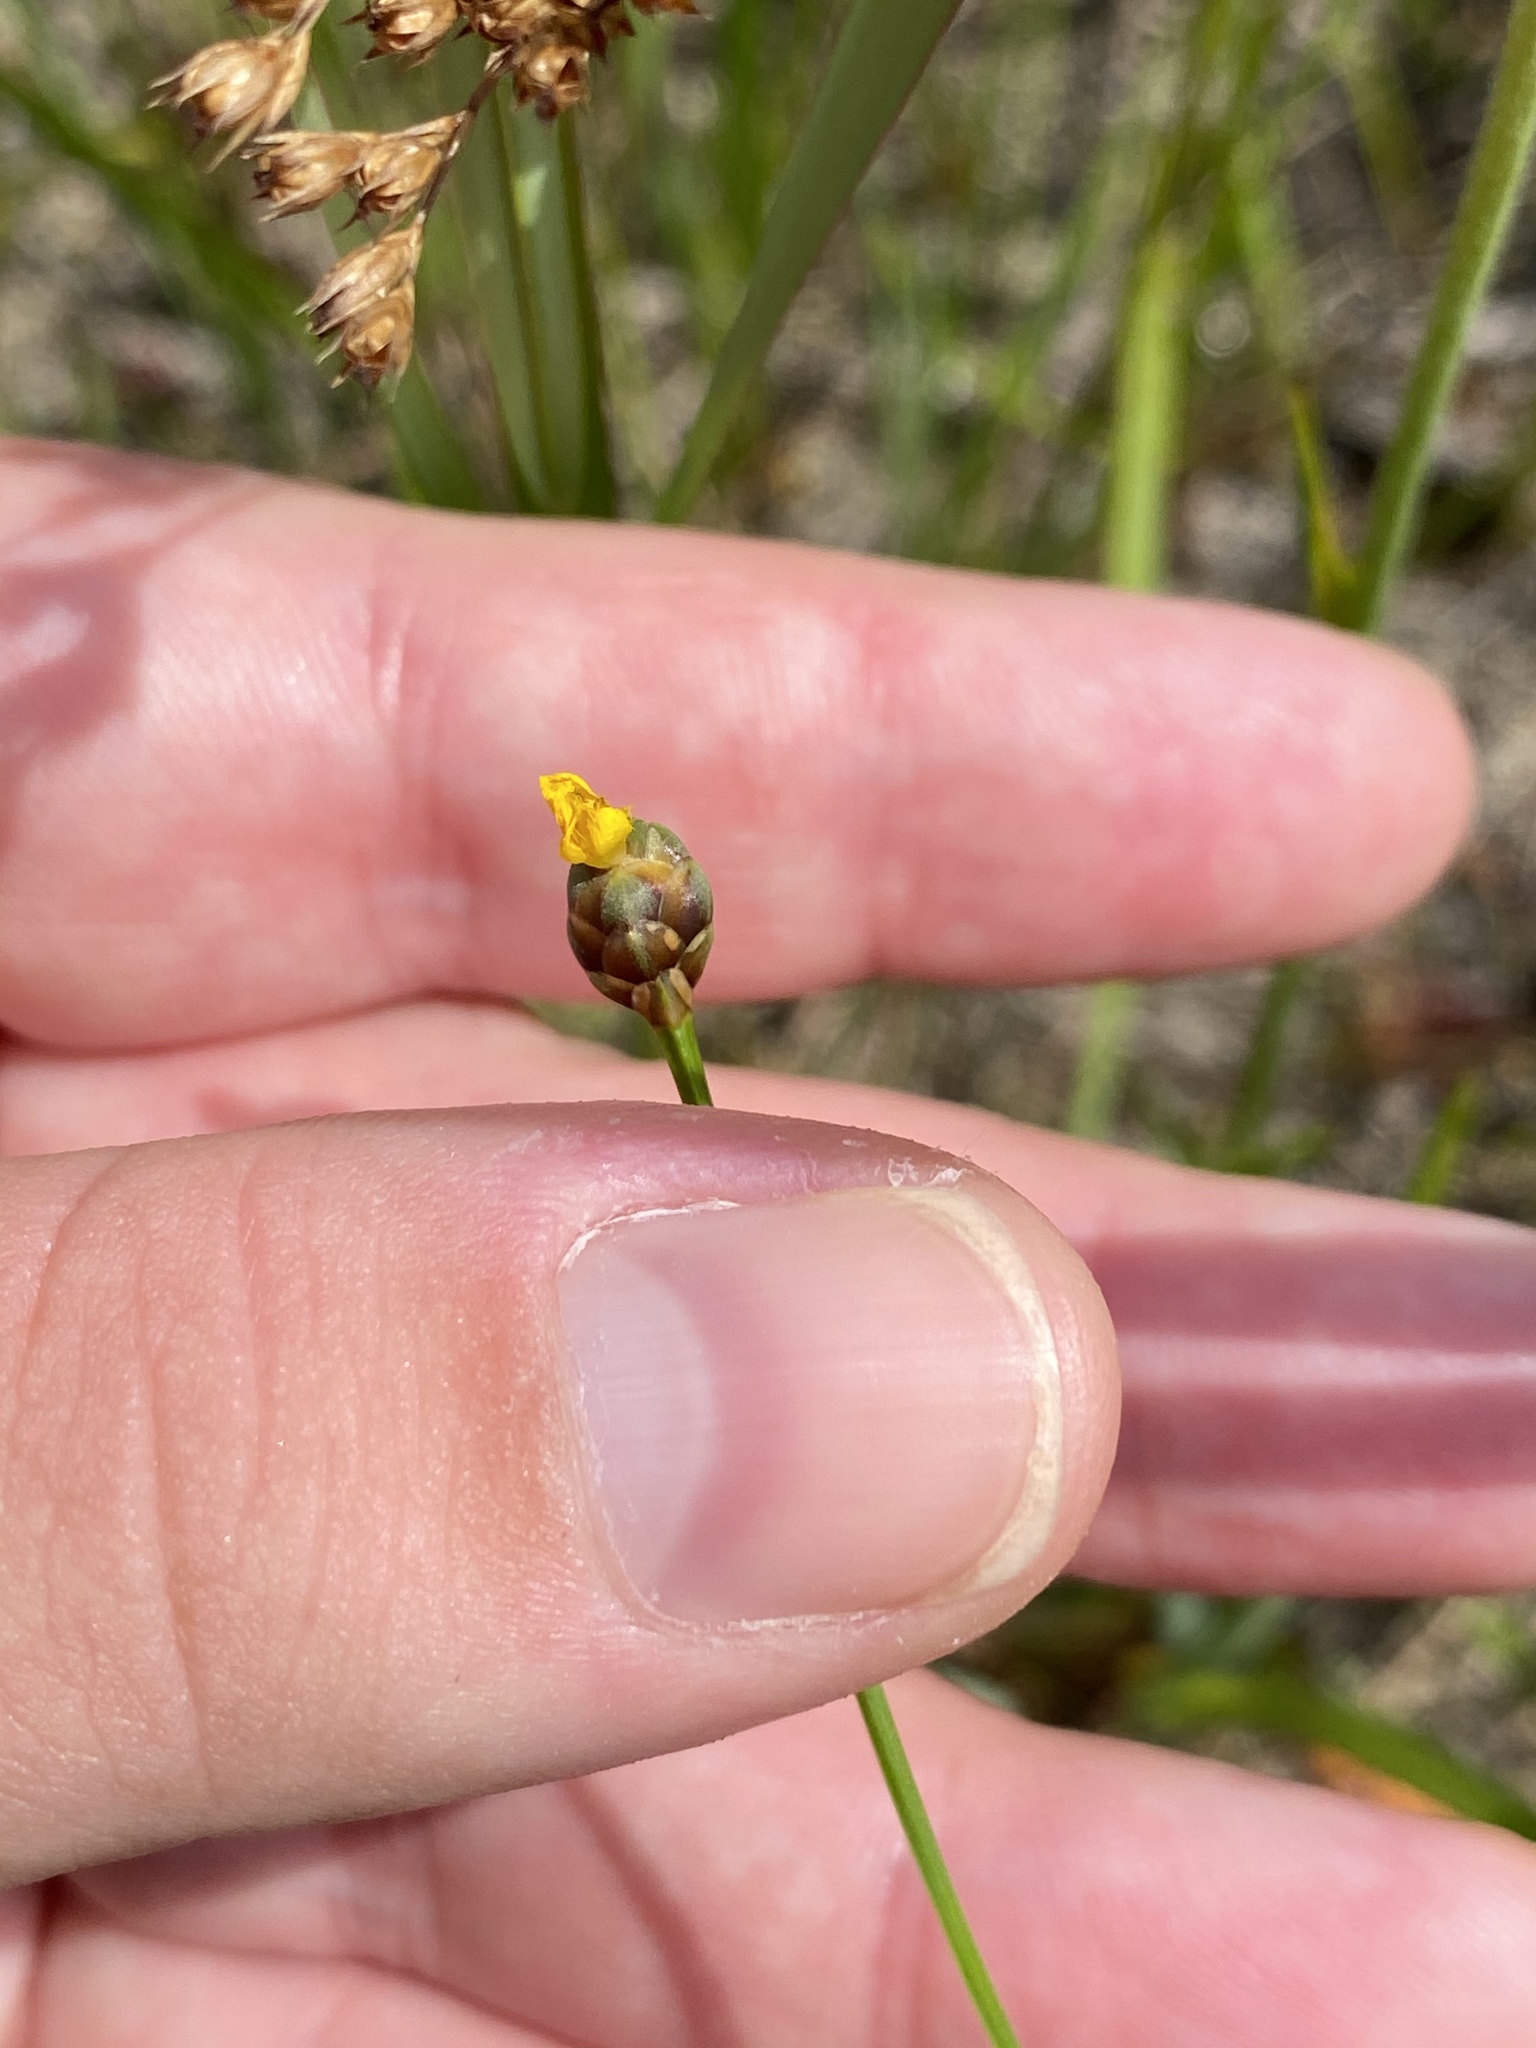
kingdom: Plantae
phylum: Tracheophyta
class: Liliopsida
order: Poales
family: Xyridaceae
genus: Xyris
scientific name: Xyris torta
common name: Common yelloweyed grass
